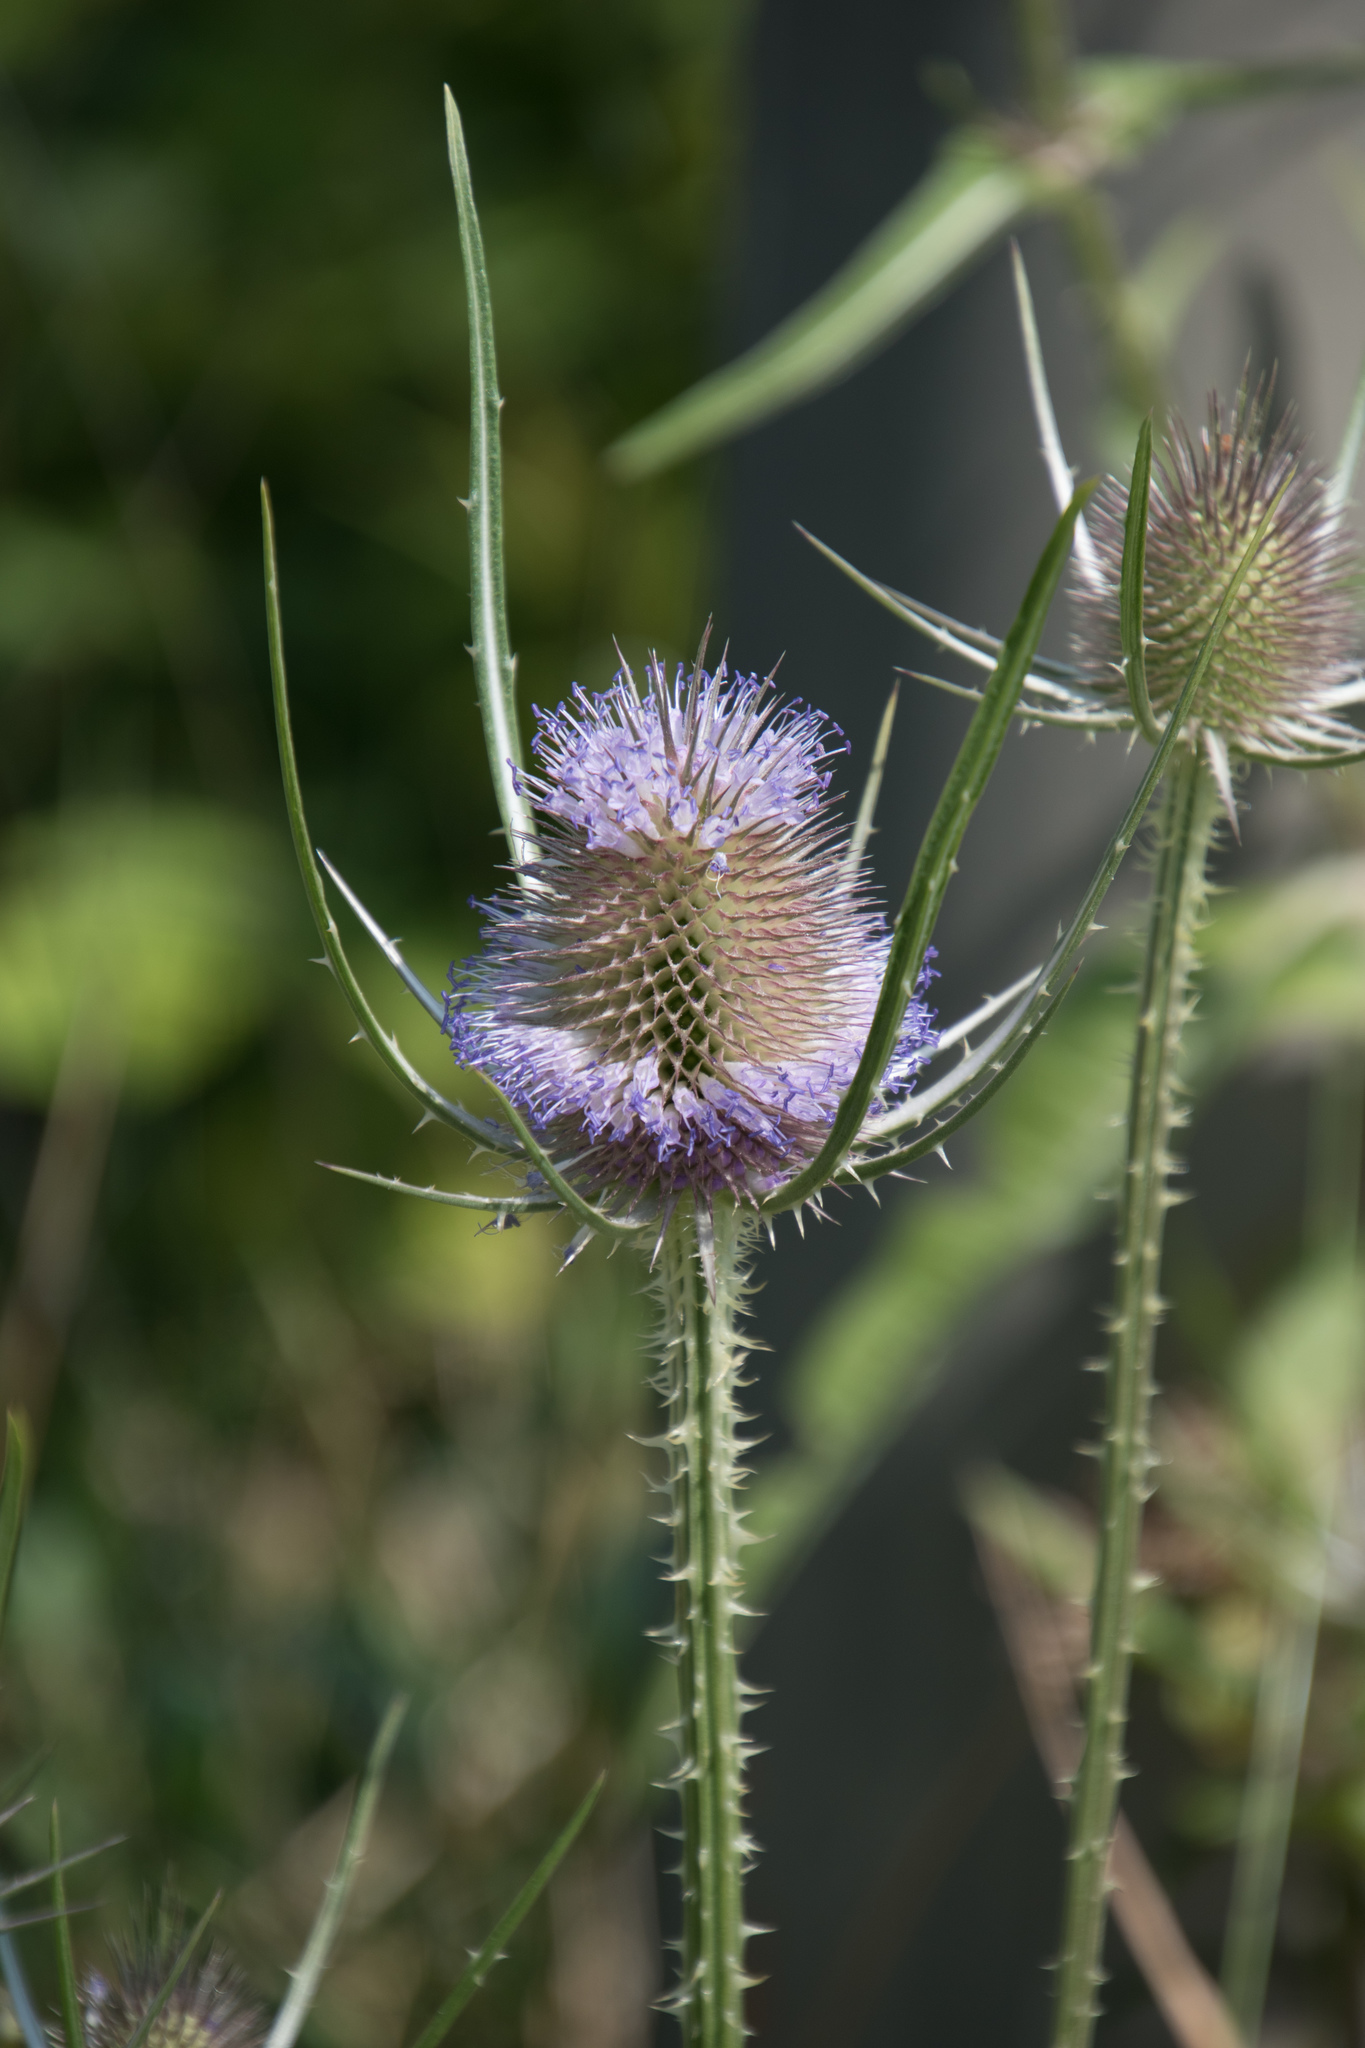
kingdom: Plantae
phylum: Tracheophyta
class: Magnoliopsida
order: Dipsacales
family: Caprifoliaceae
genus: Dipsacus
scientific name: Dipsacus fullonum
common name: Teasel
